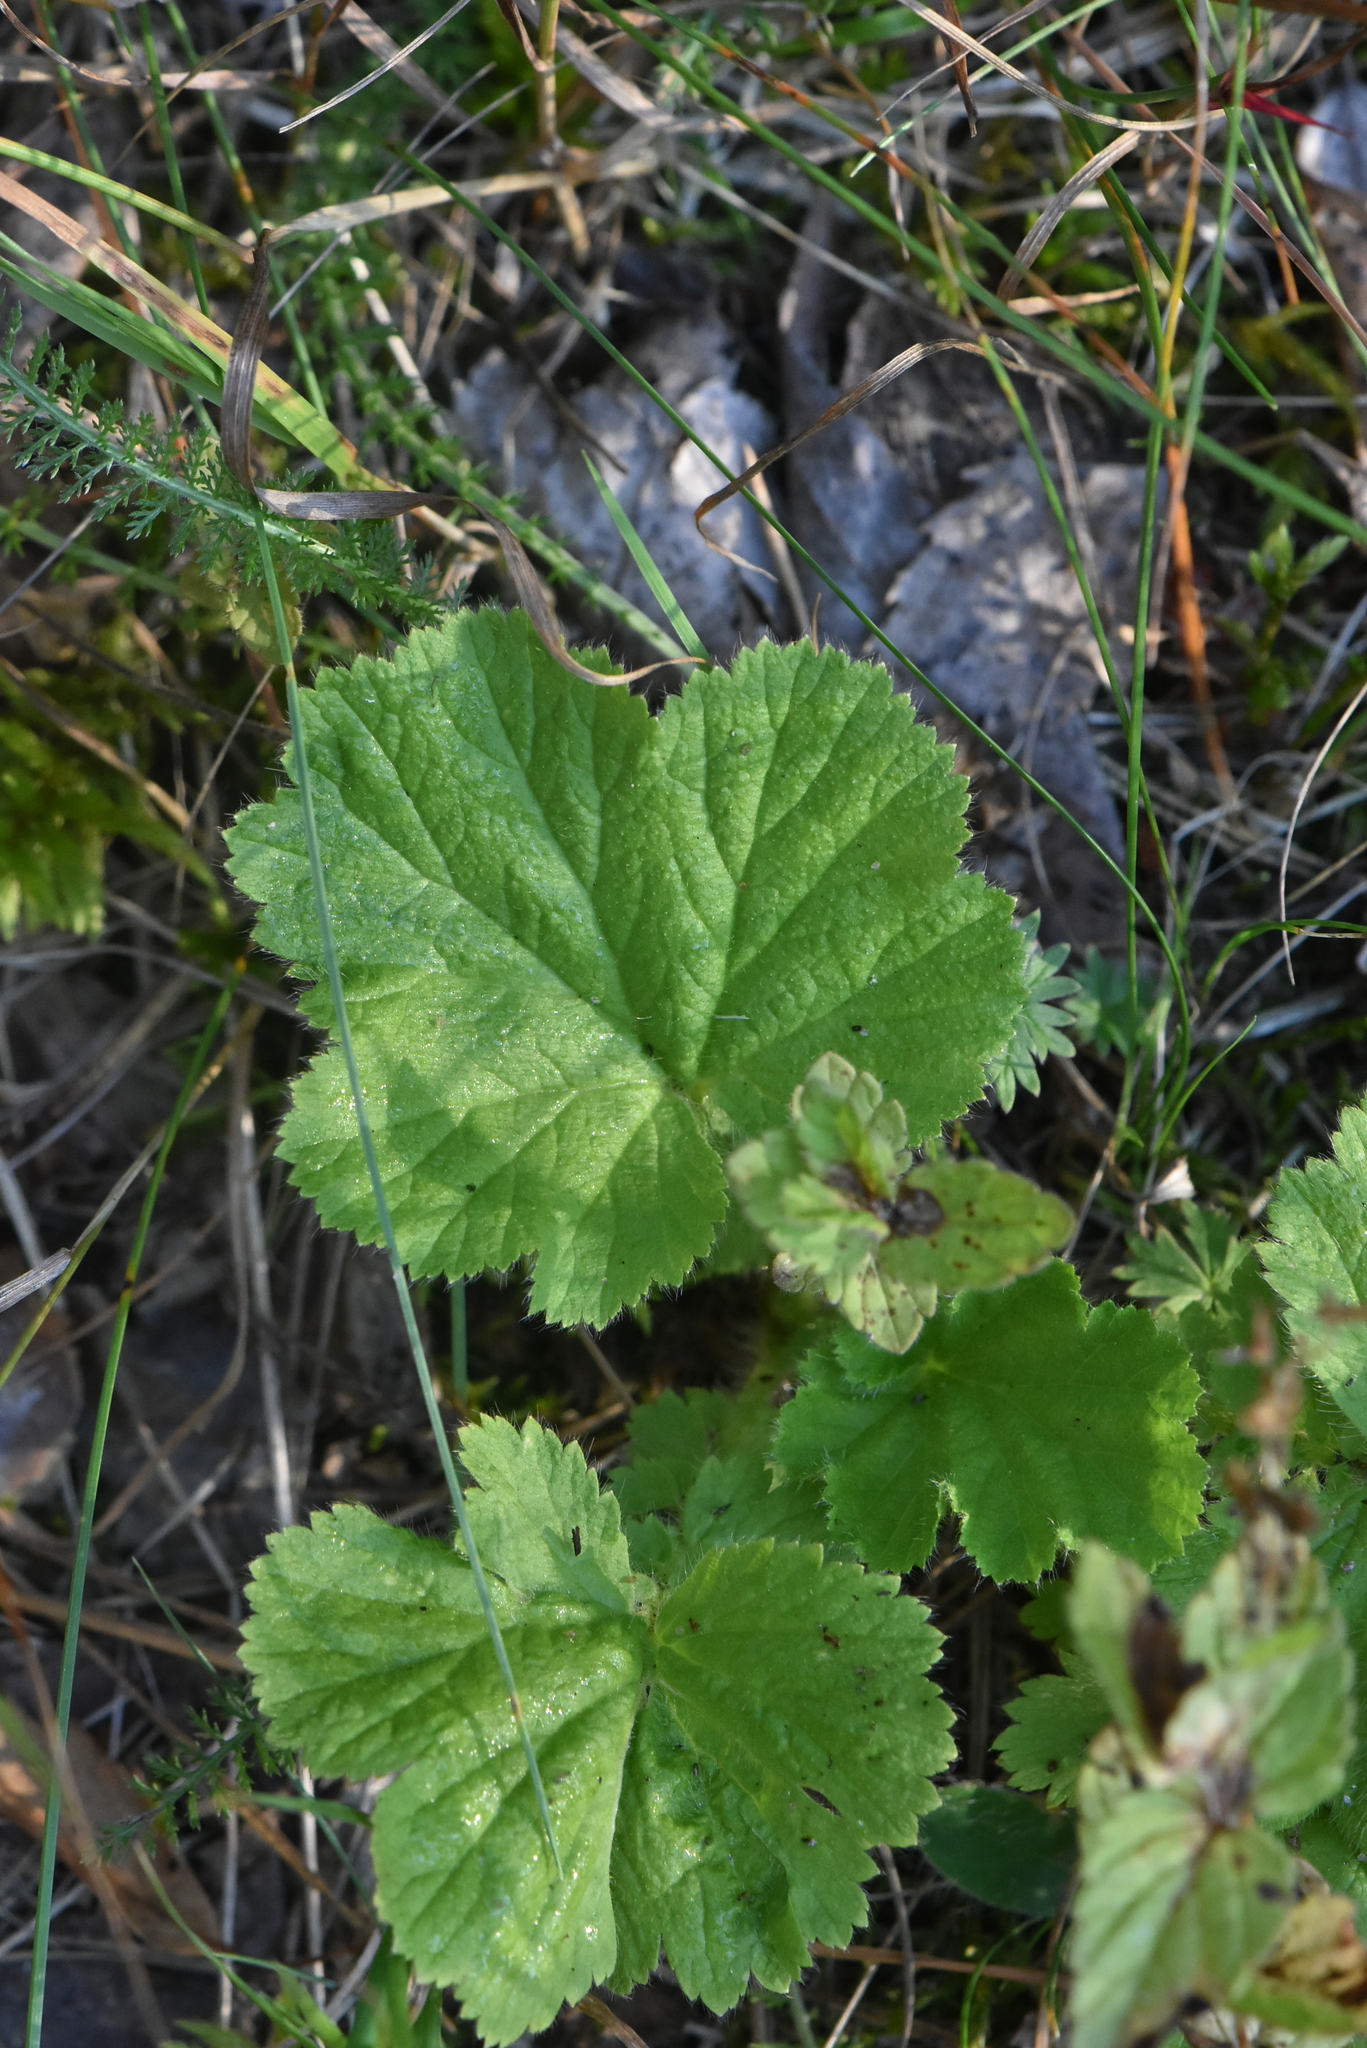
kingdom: Plantae
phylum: Tracheophyta
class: Magnoliopsida
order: Rosales
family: Rosaceae
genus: Rubus
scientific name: Rubus chamaemorus
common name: Cloudberry
